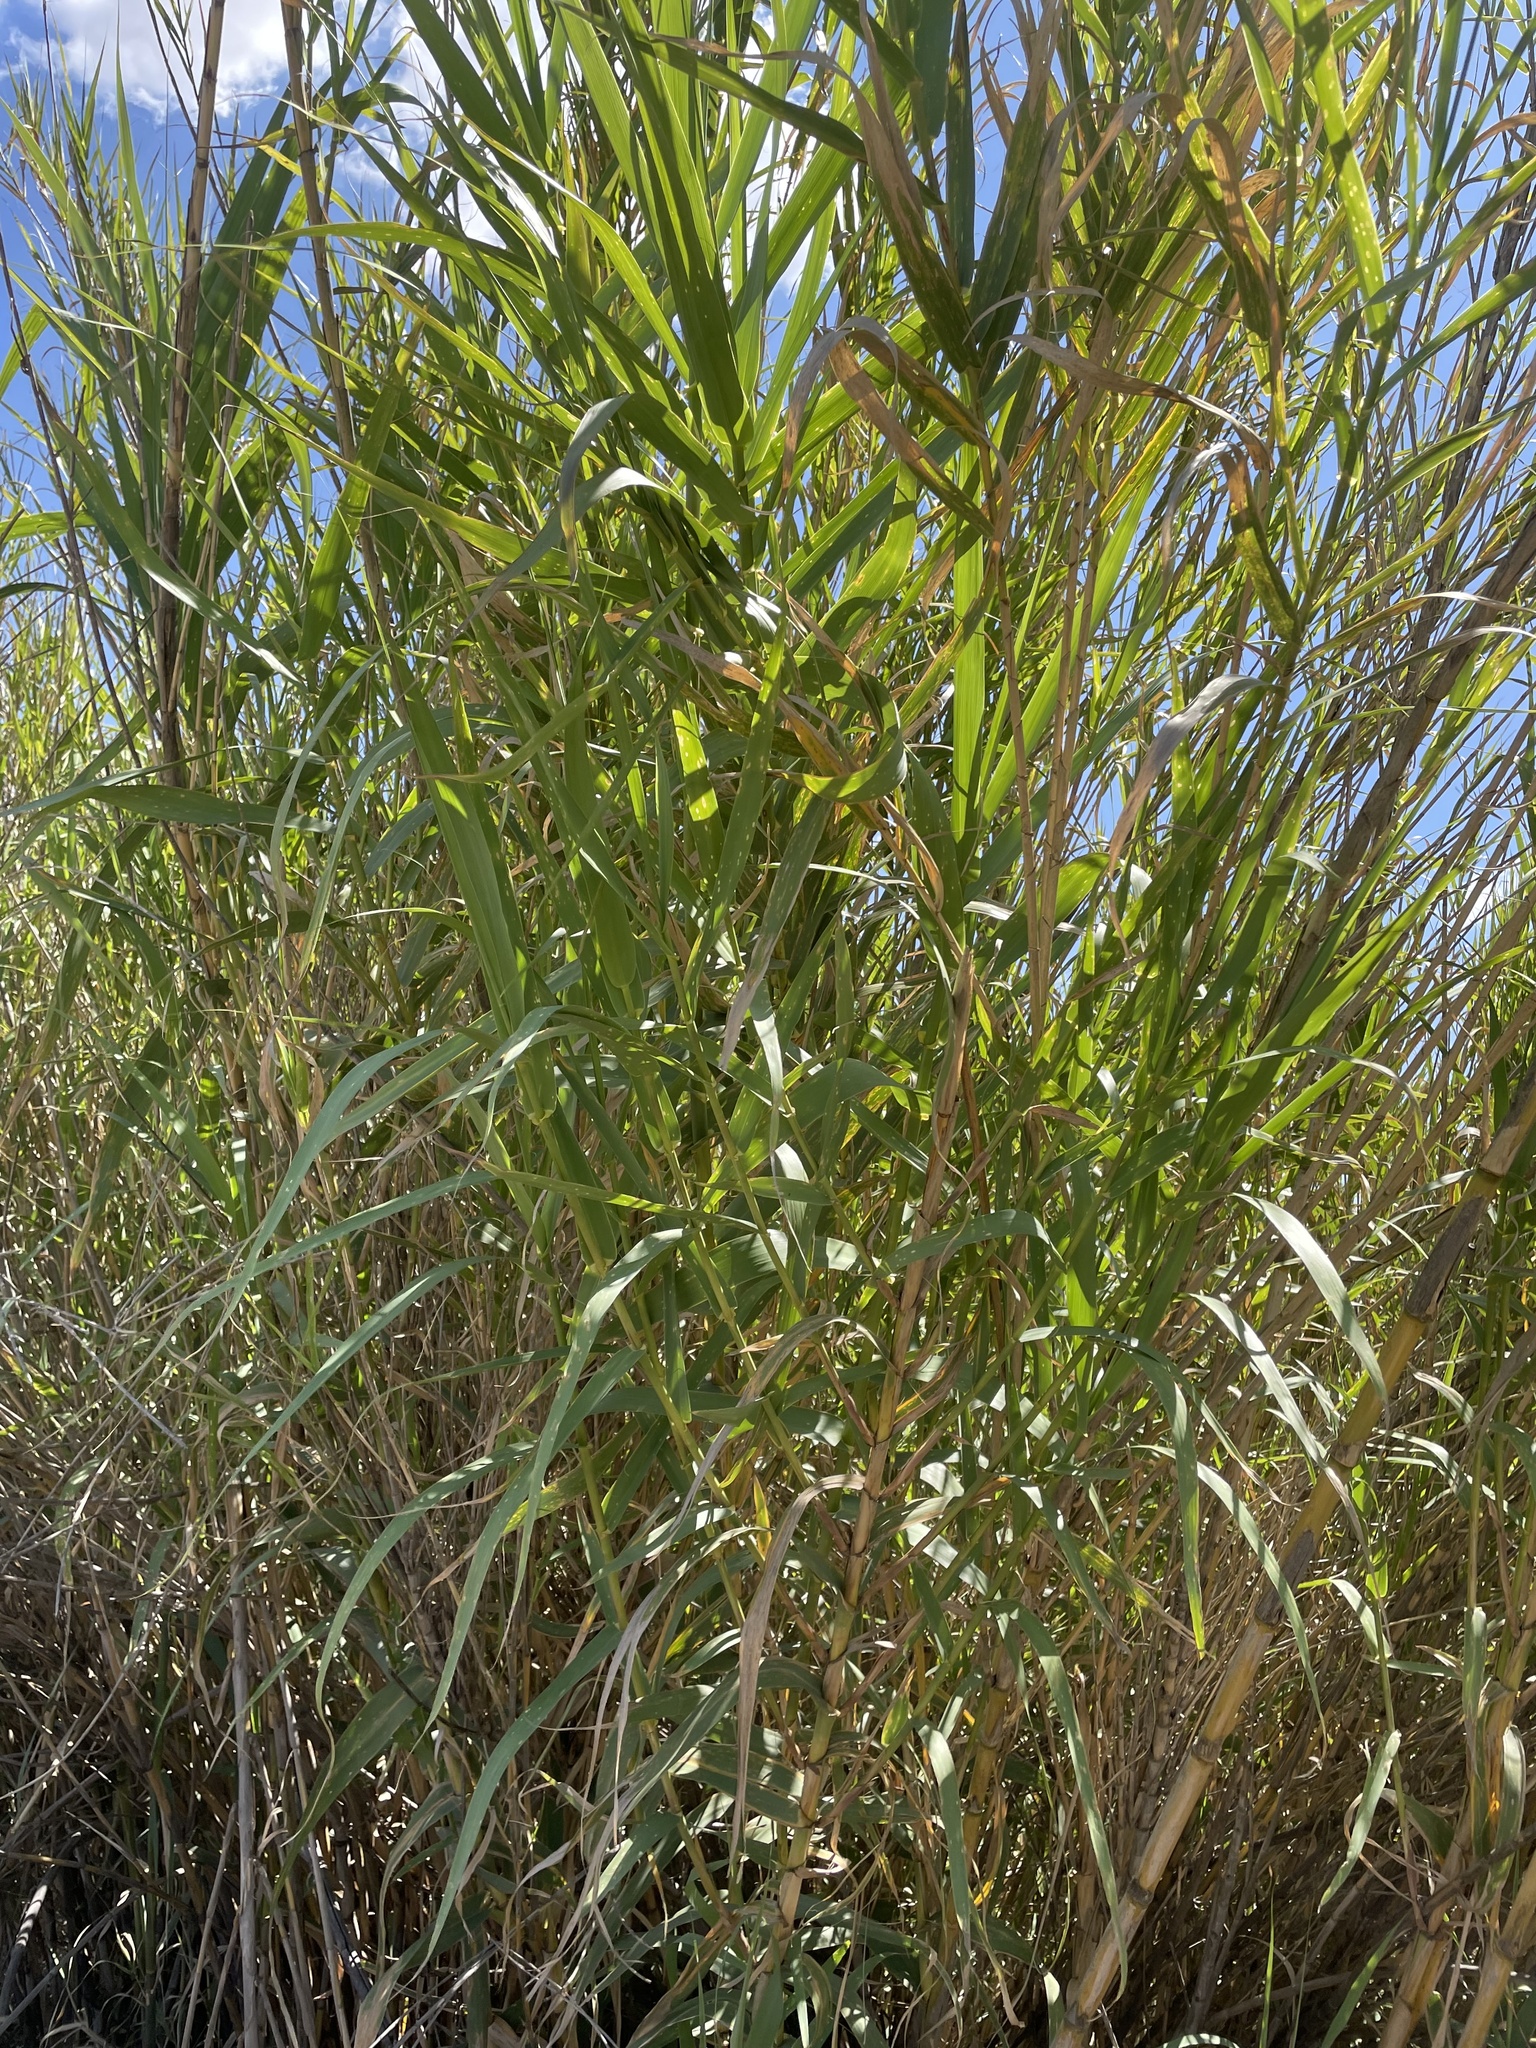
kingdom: Plantae
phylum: Tracheophyta
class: Liliopsida
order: Poales
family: Poaceae
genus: Arundo
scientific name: Arundo donax
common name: Giant reed
